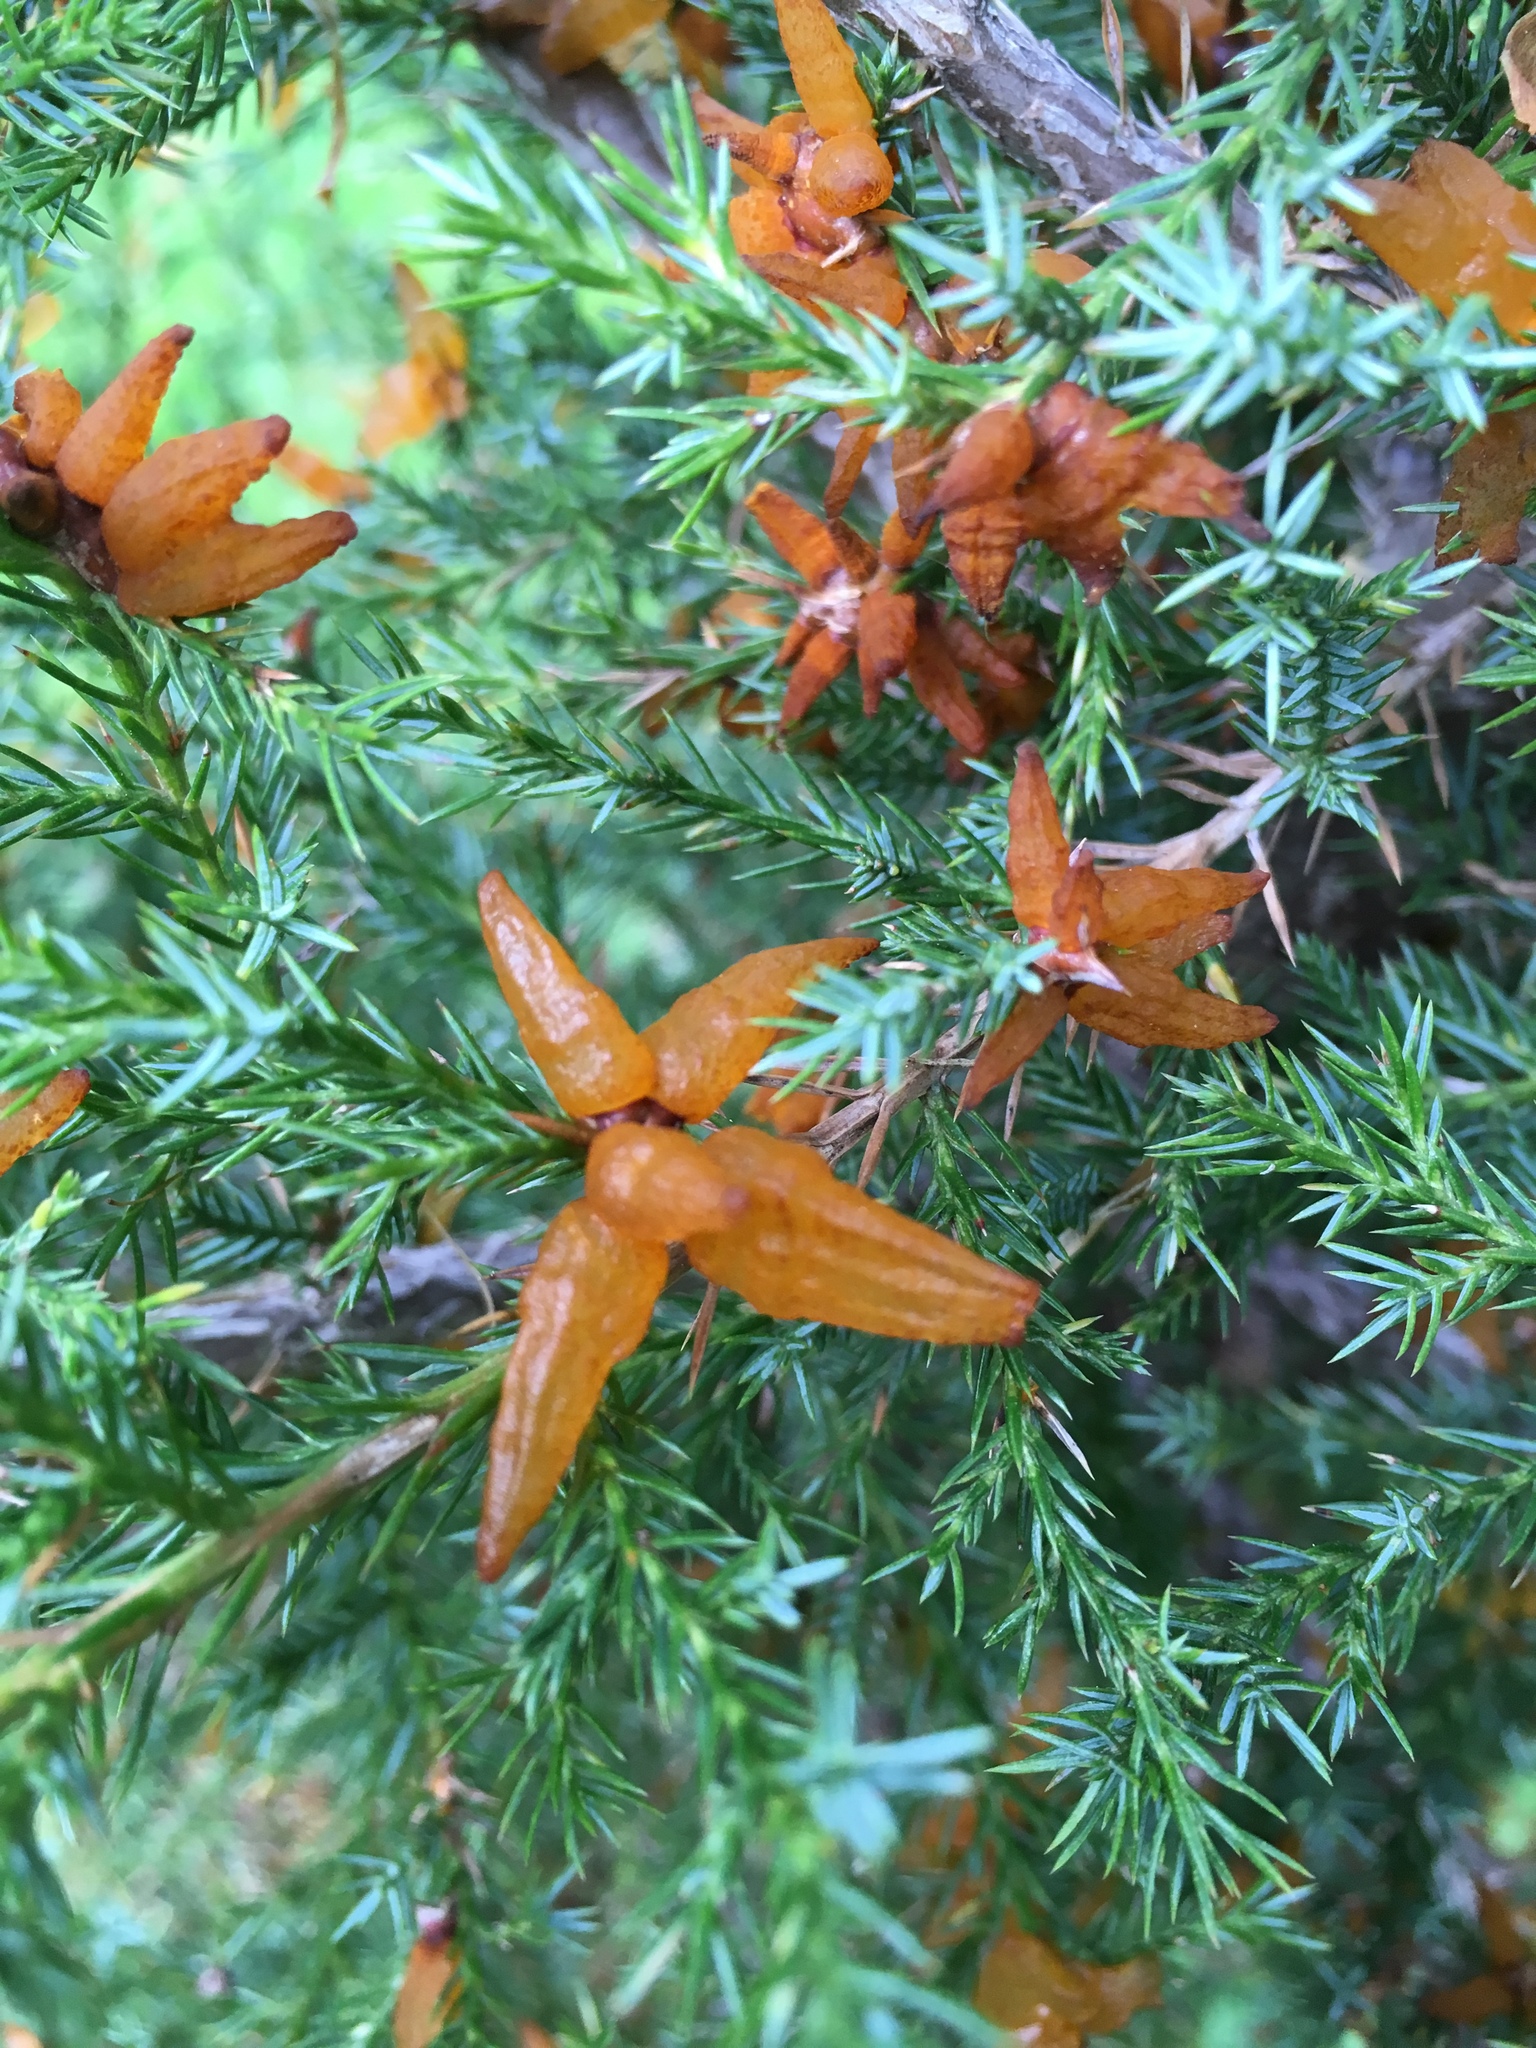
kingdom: Fungi
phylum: Basidiomycota
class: Pucciniomycetes
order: Pucciniales
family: Gymnosporangiaceae
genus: Gymnosporangium
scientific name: Gymnosporangium juniperi-virginianae
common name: Juniper-apple rust
